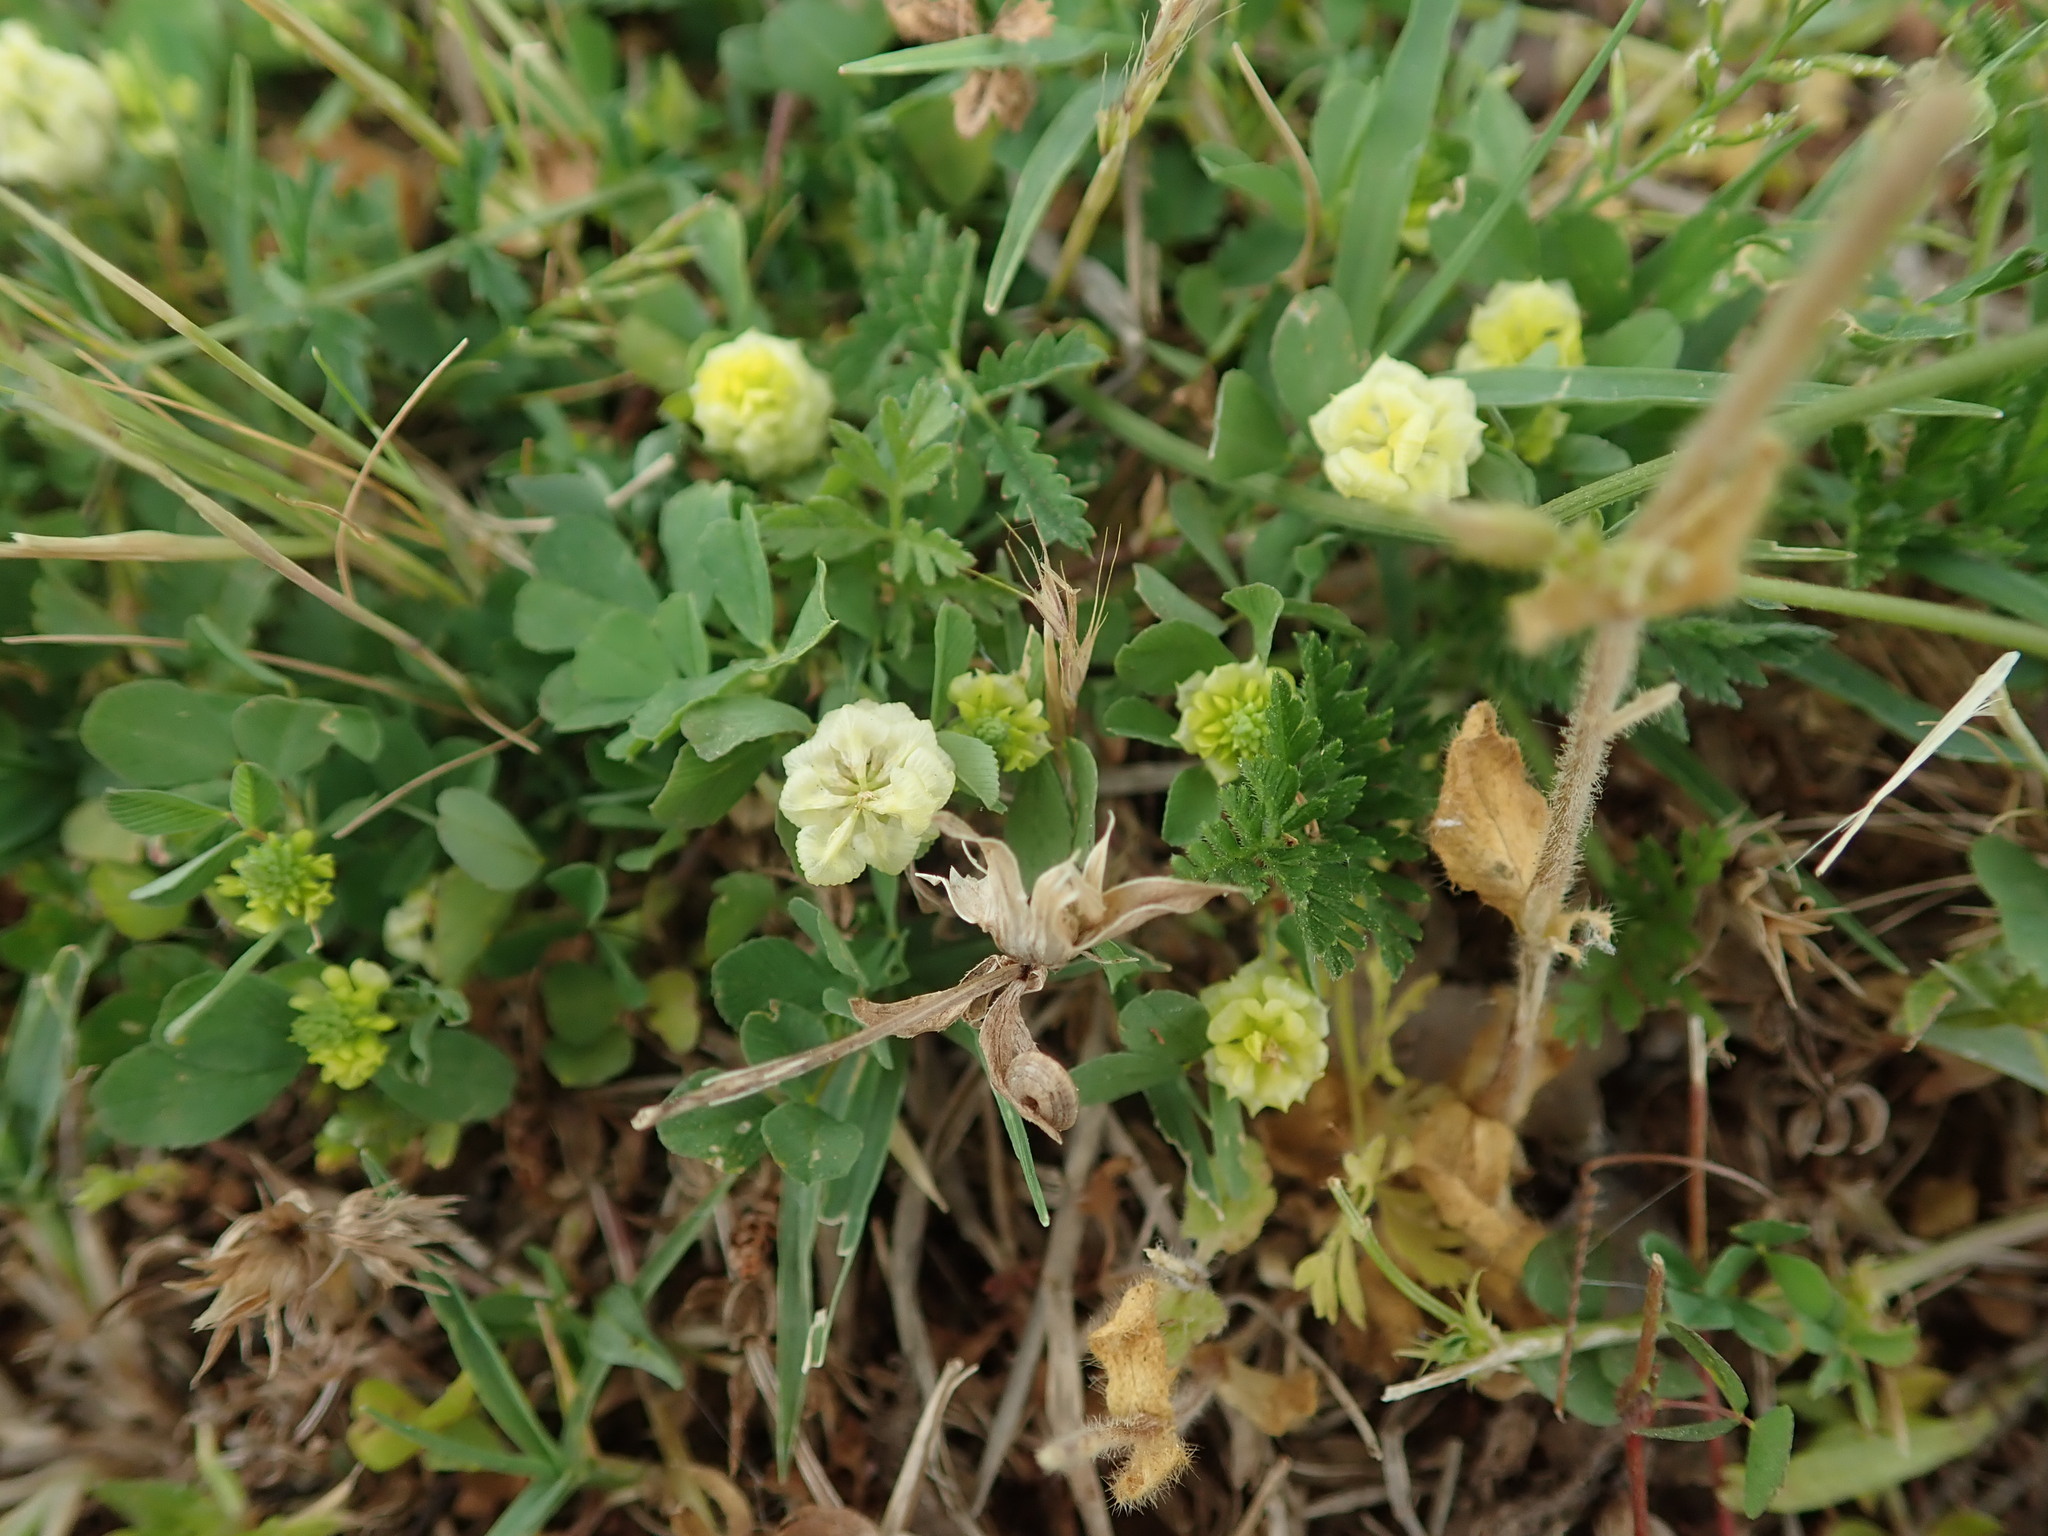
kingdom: Plantae
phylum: Tracheophyta
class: Magnoliopsida
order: Fabales
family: Fabaceae
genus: Trifolium
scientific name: Trifolium campestre
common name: Field clover
